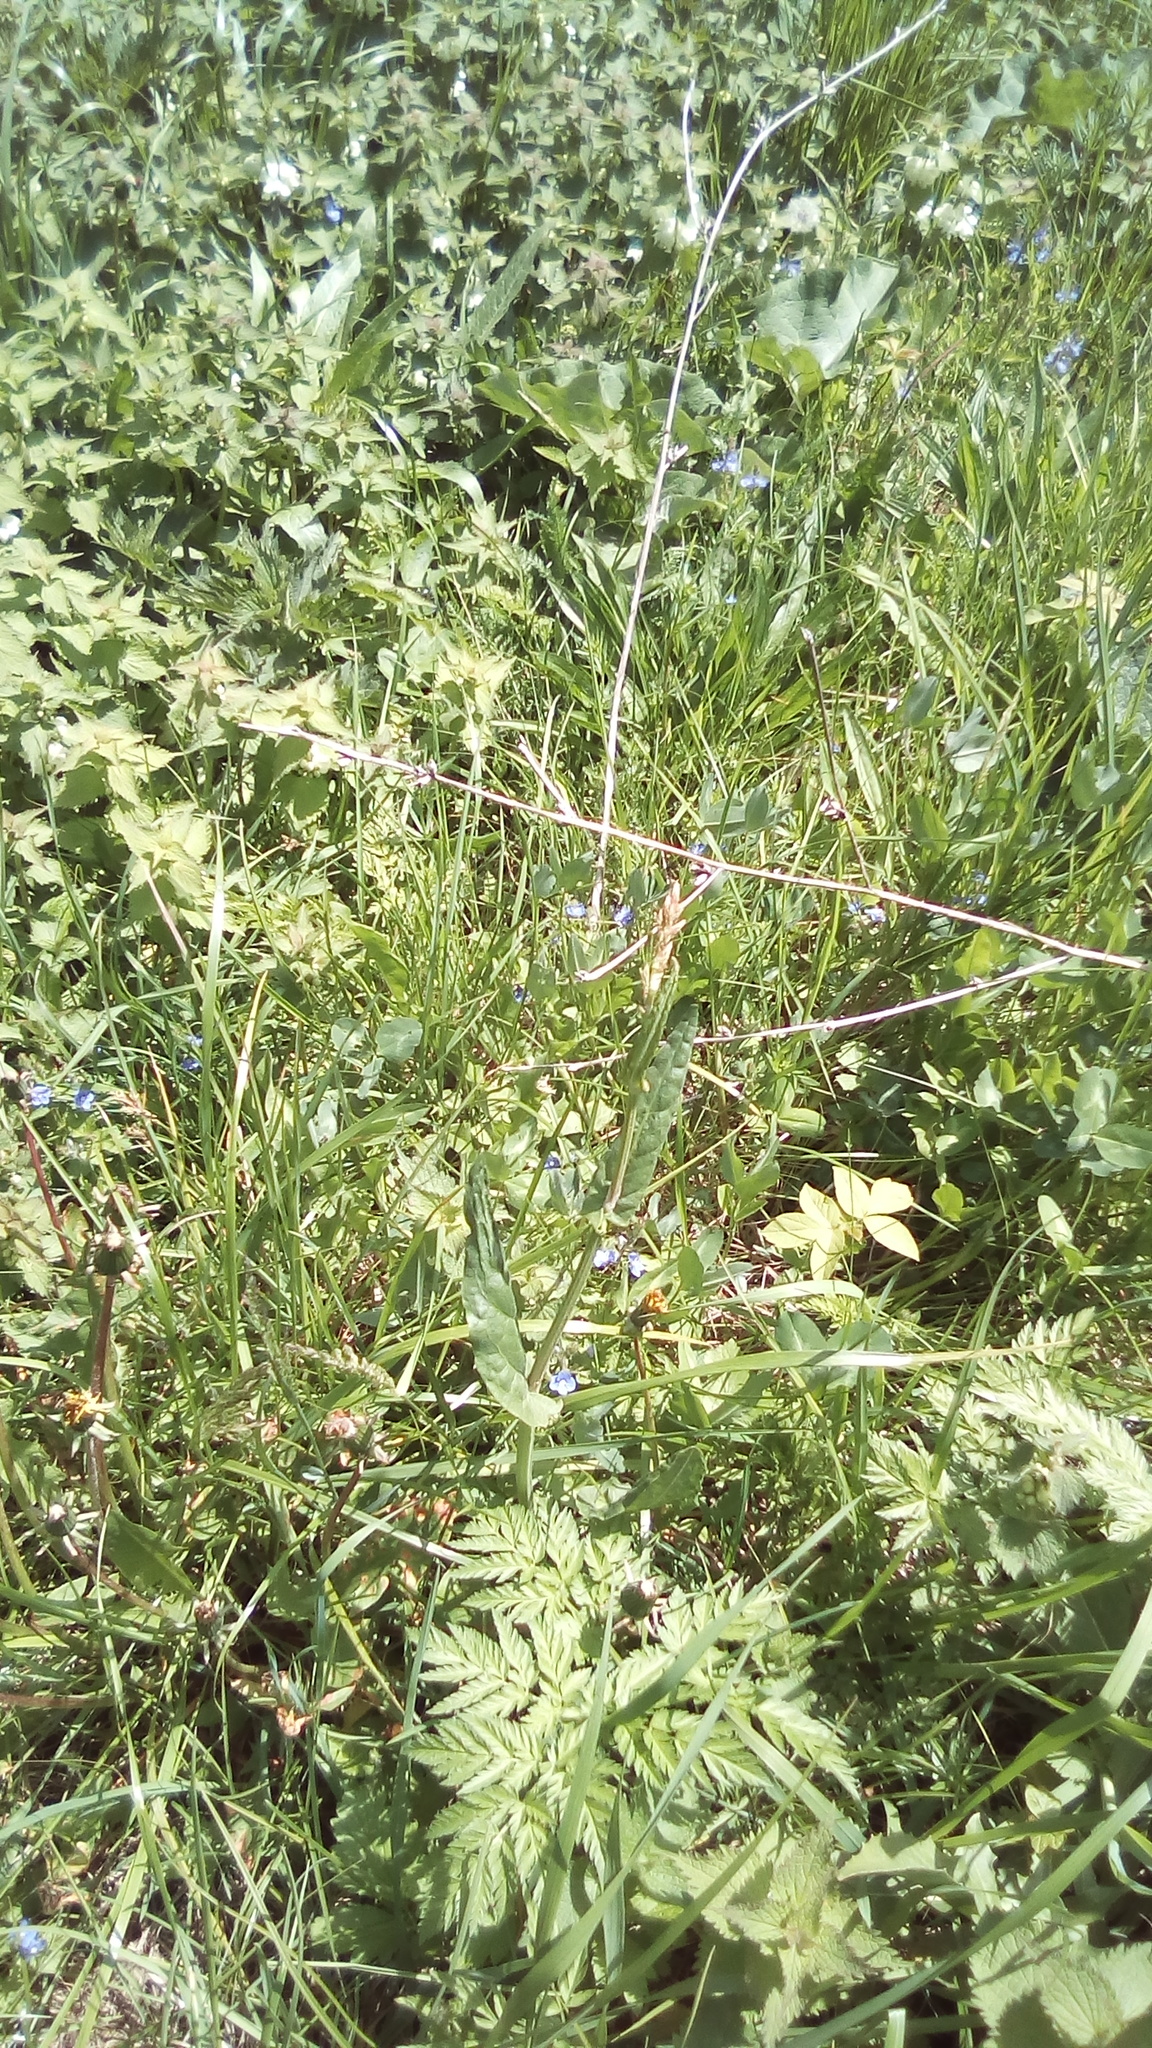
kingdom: Plantae
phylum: Tracheophyta
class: Magnoliopsida
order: Asterales
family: Asteraceae
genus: Cichorium
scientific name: Cichorium intybus
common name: Chicory
